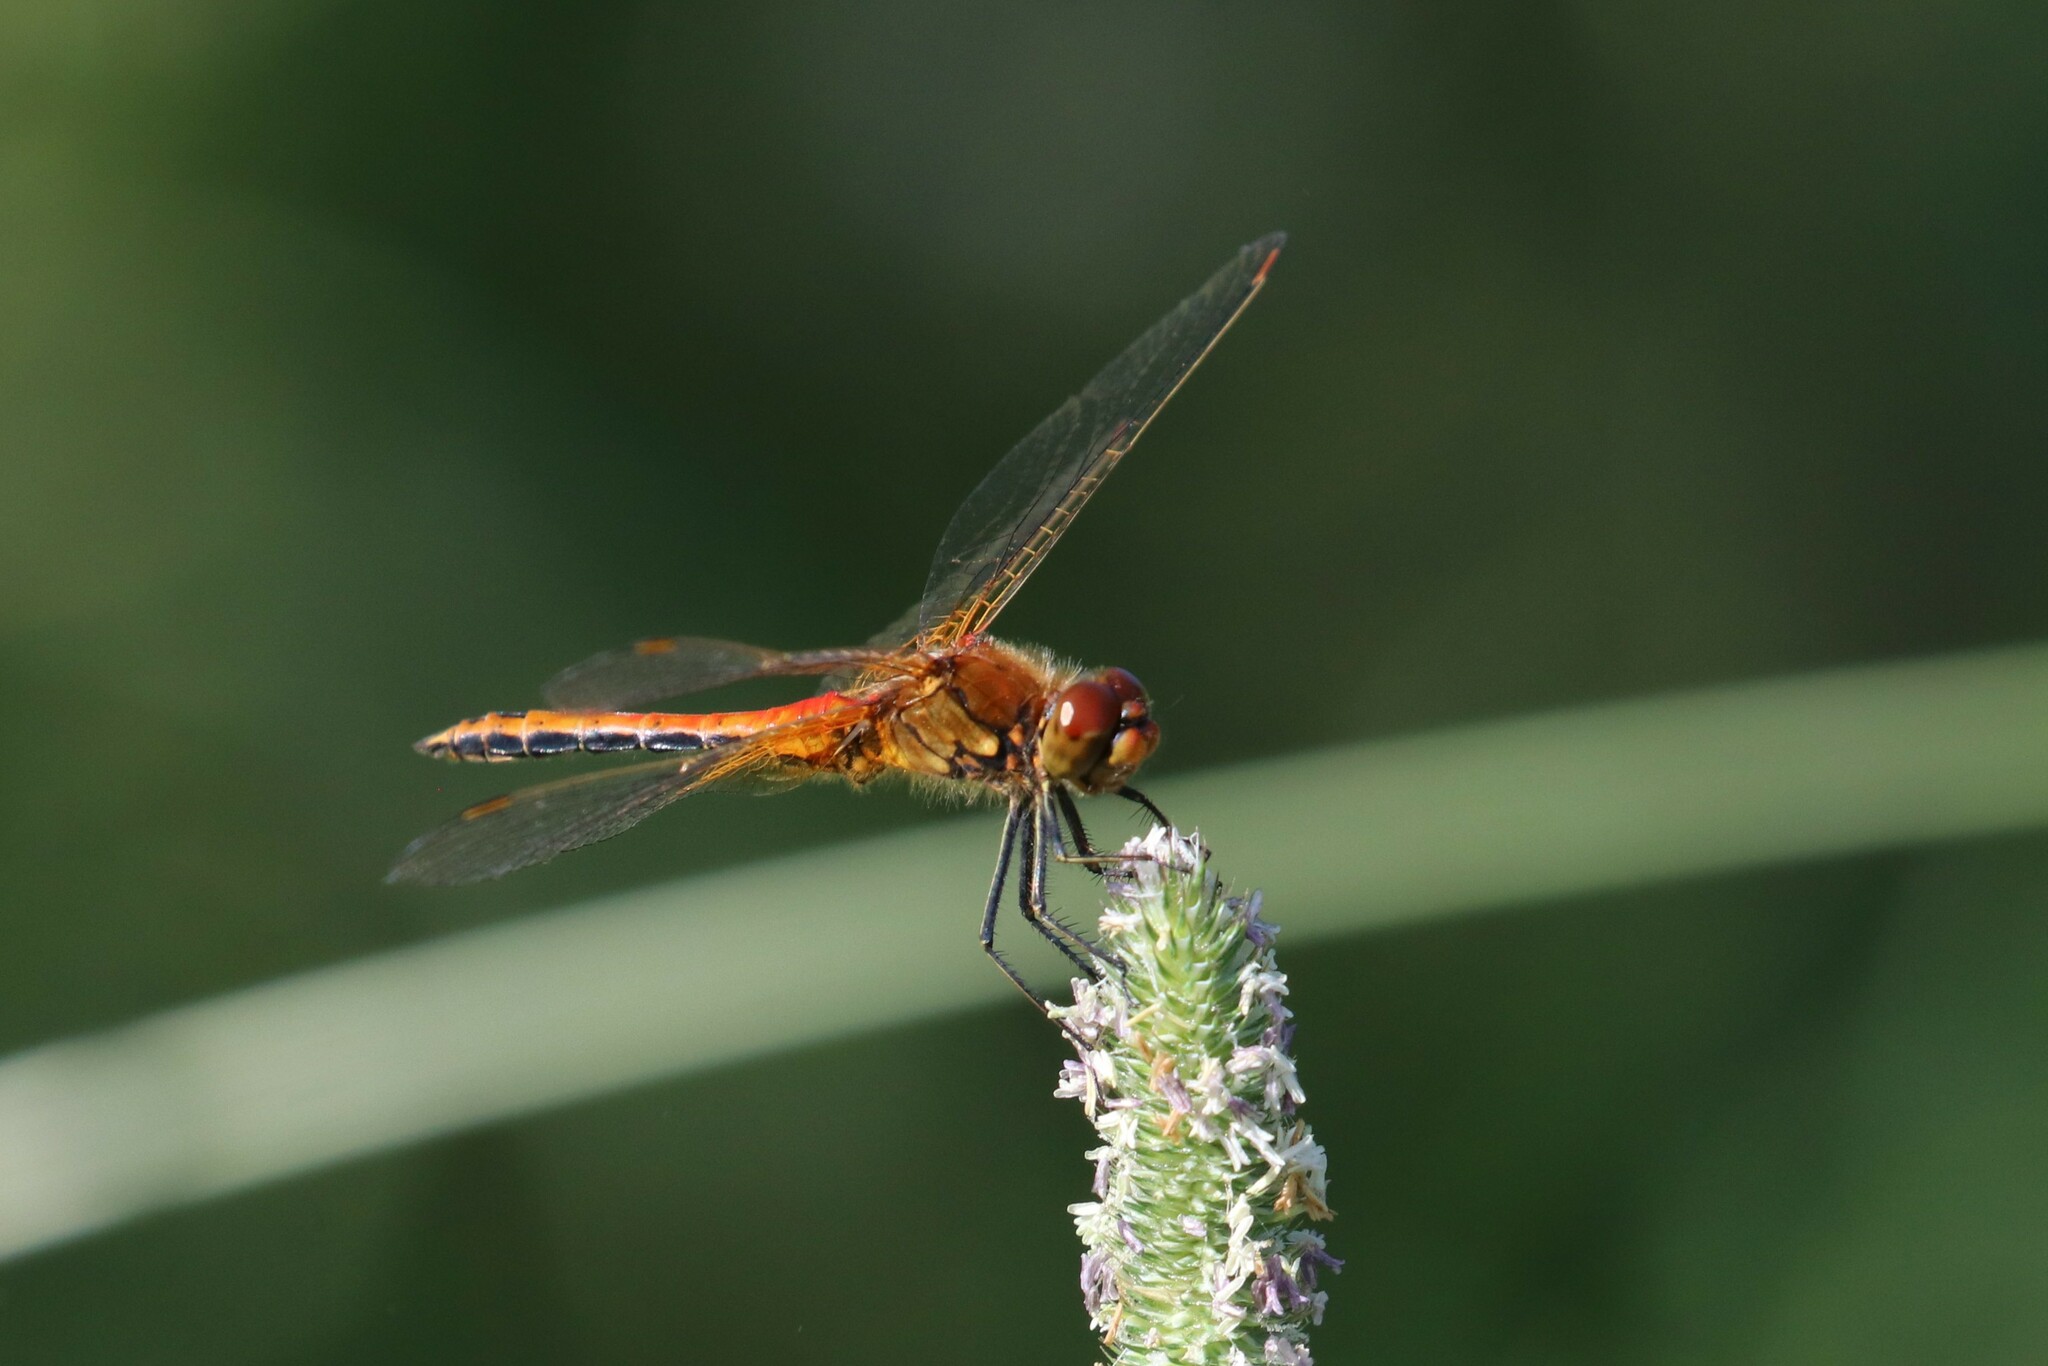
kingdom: Animalia
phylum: Arthropoda
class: Insecta
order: Odonata
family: Libellulidae
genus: Sympetrum
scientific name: Sympetrum flaveolum
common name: Yellow-winged darter
